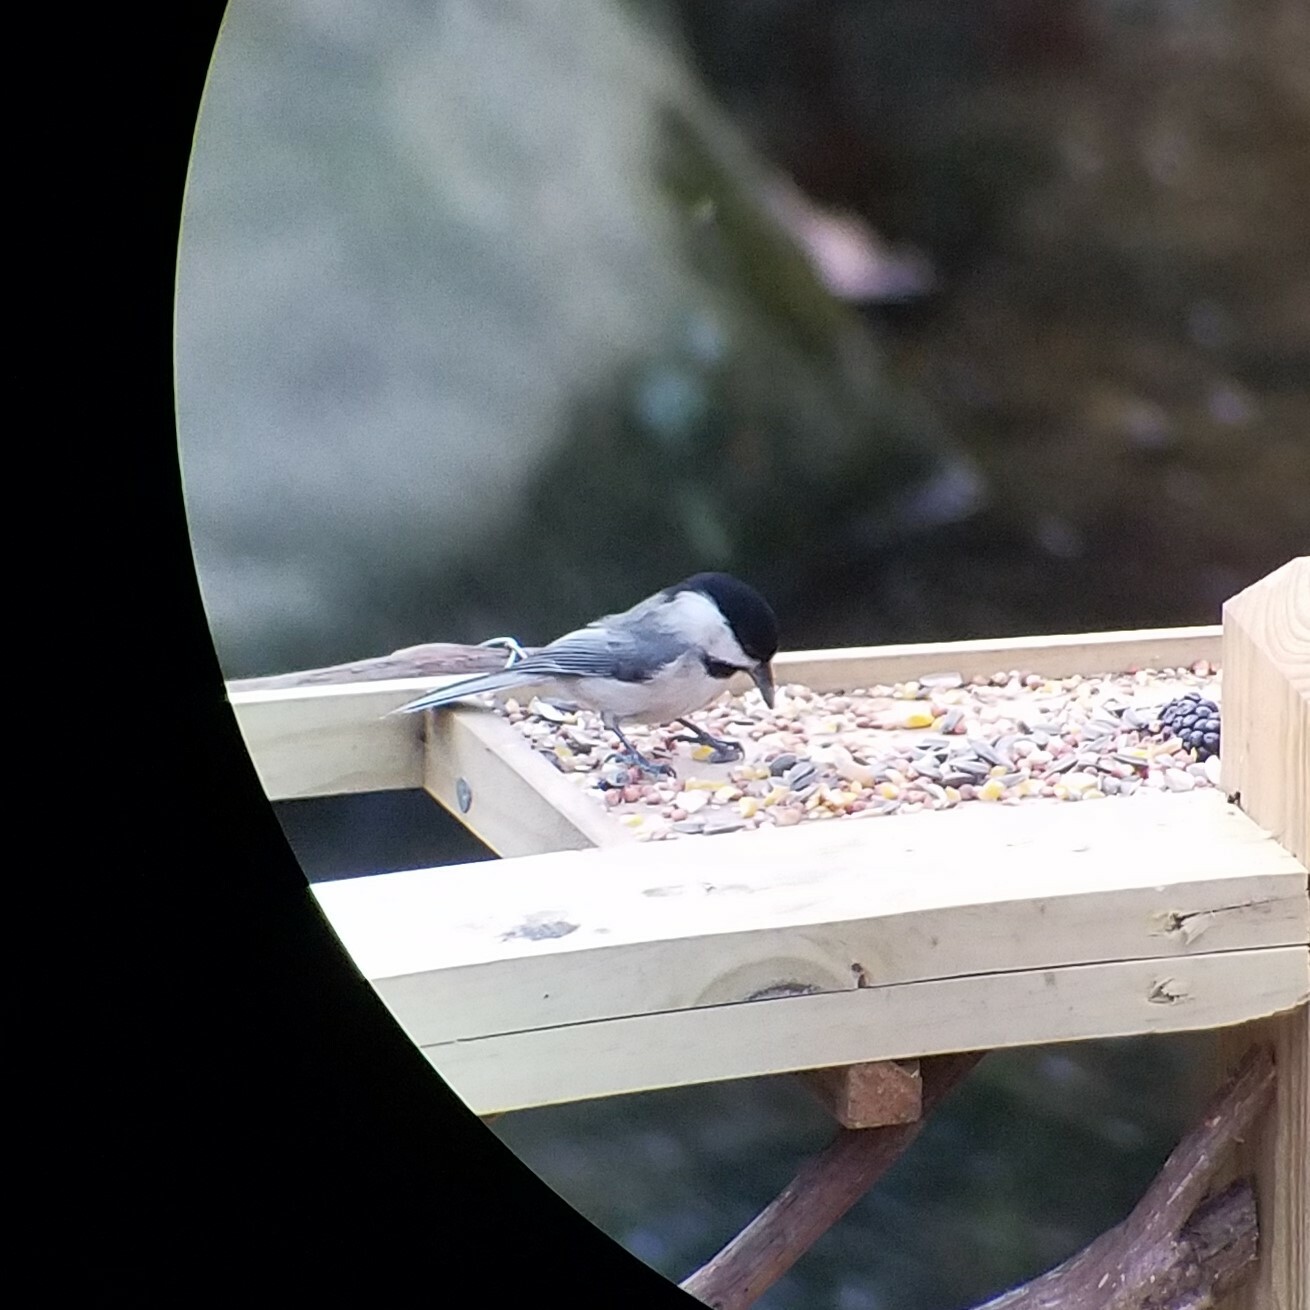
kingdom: Animalia
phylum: Chordata
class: Aves
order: Passeriformes
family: Paridae
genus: Poecile
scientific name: Poecile carolinensis
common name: Carolina chickadee
